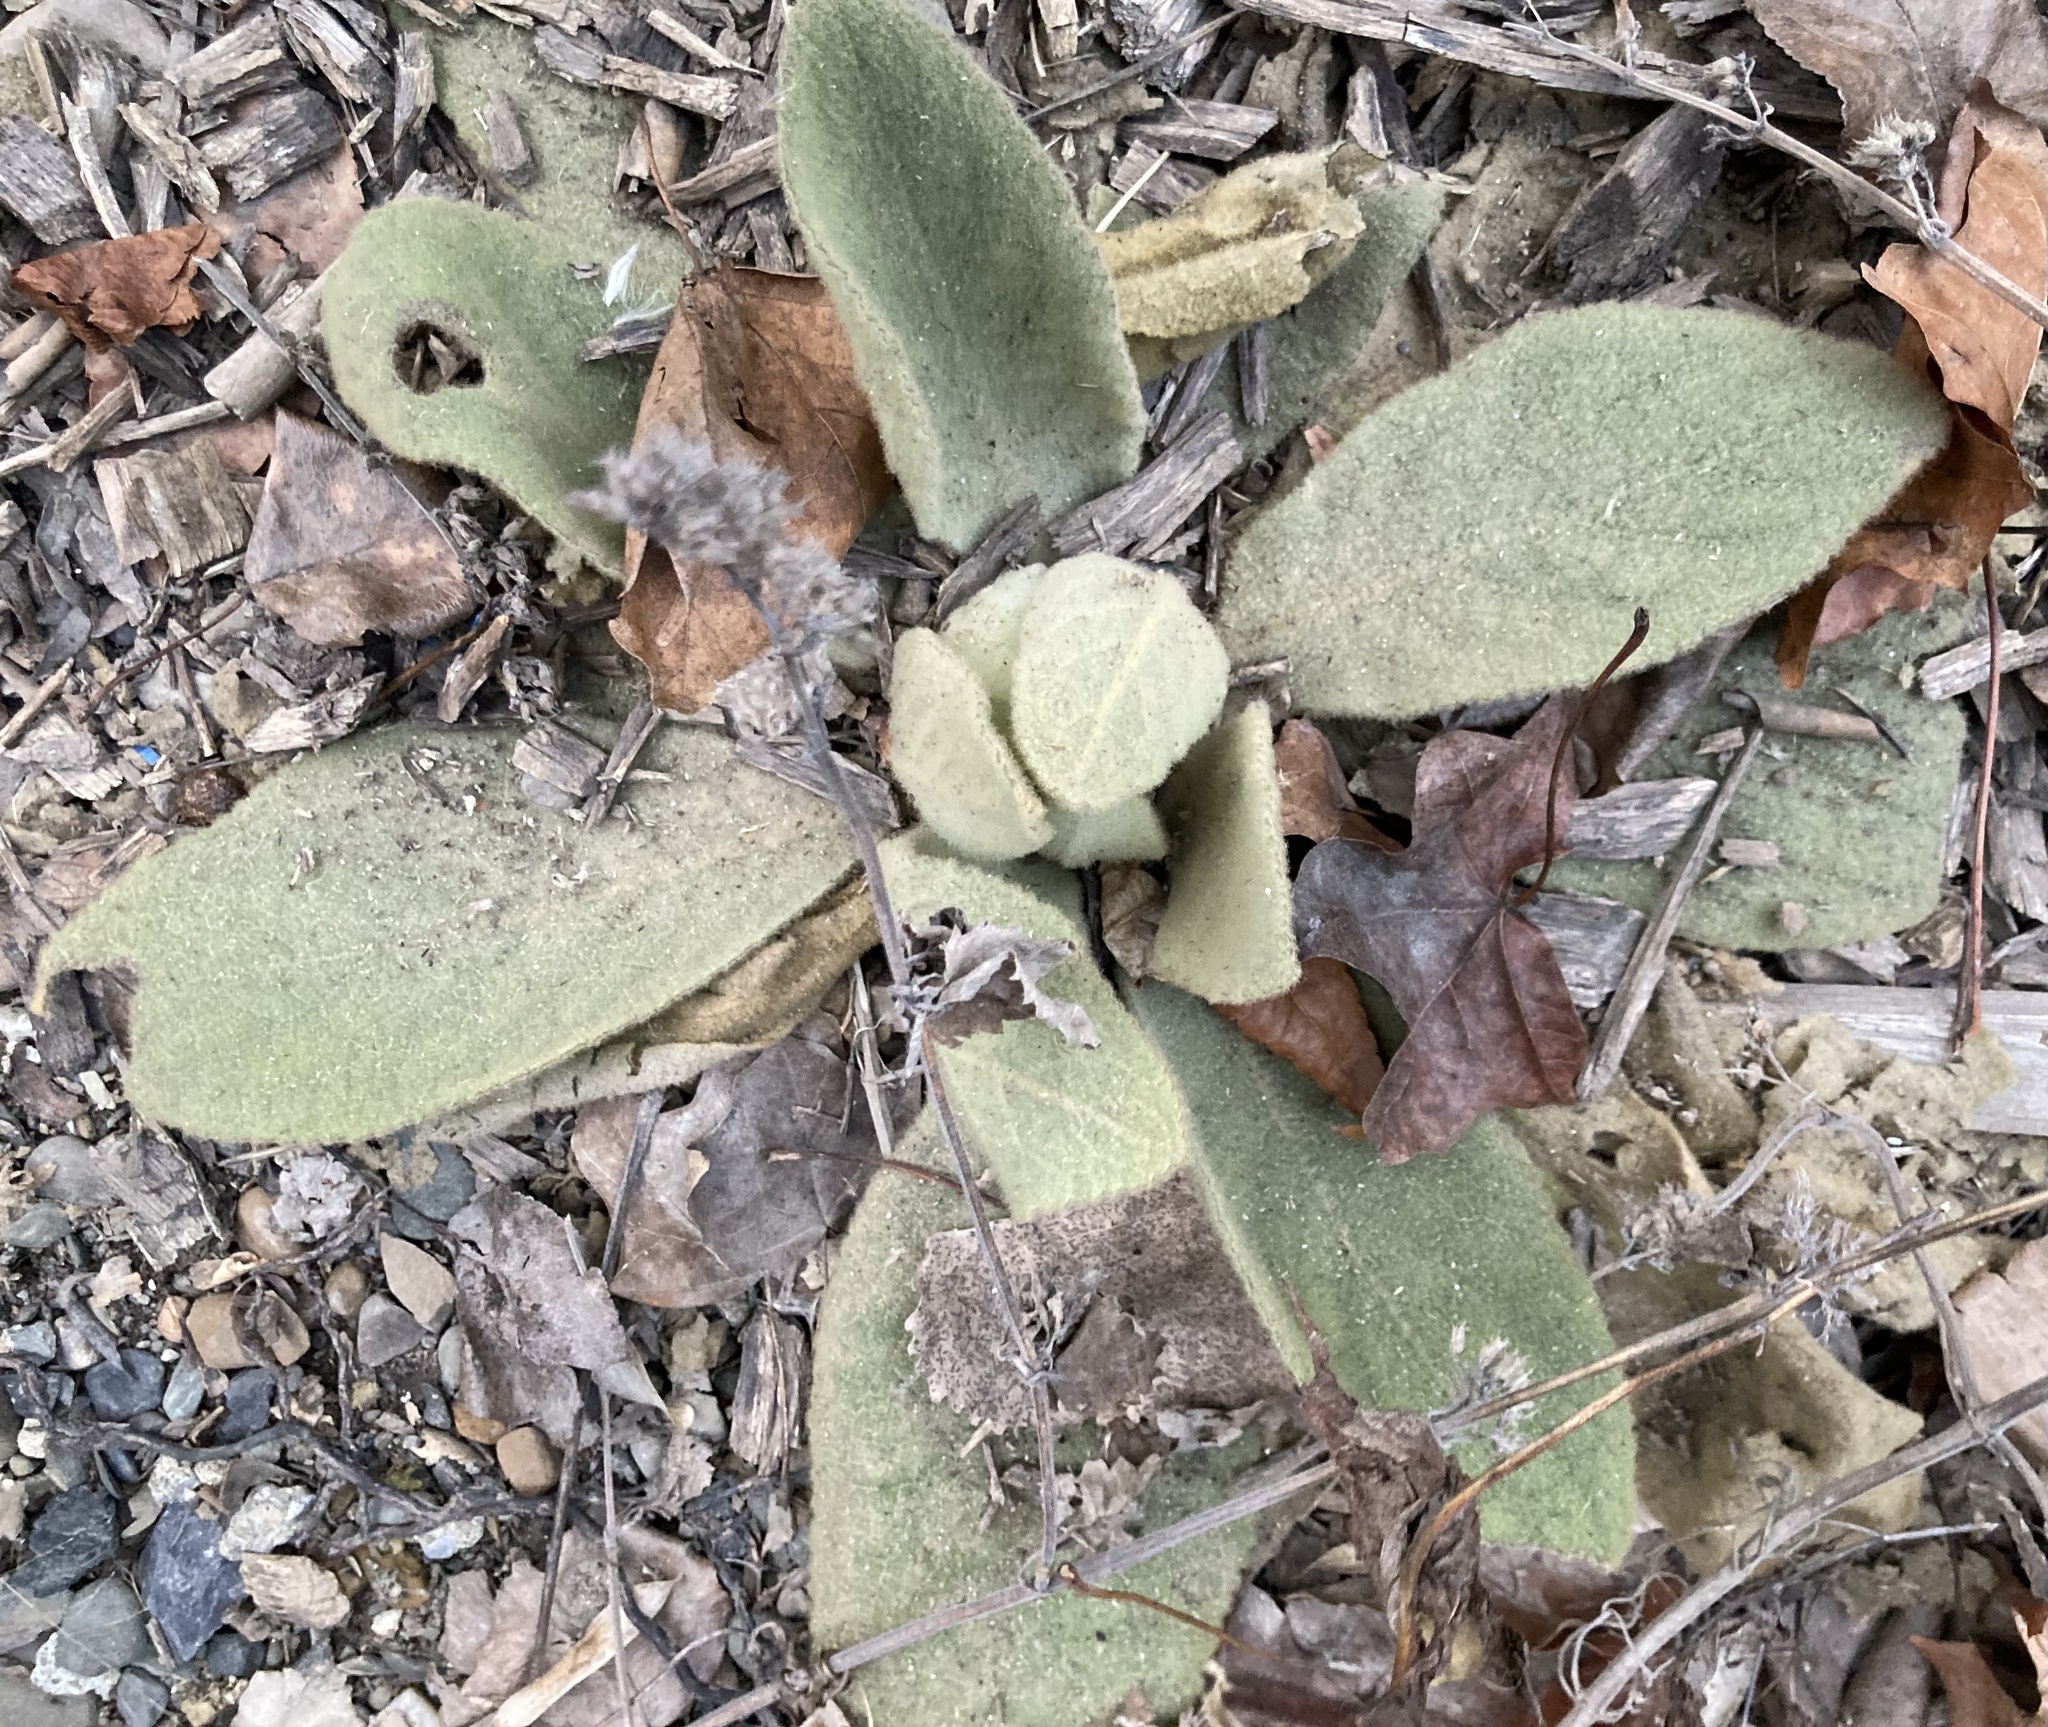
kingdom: Plantae
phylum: Tracheophyta
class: Magnoliopsida
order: Lamiales
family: Scrophulariaceae
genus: Verbascum
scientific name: Verbascum thapsus
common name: Common mullein
